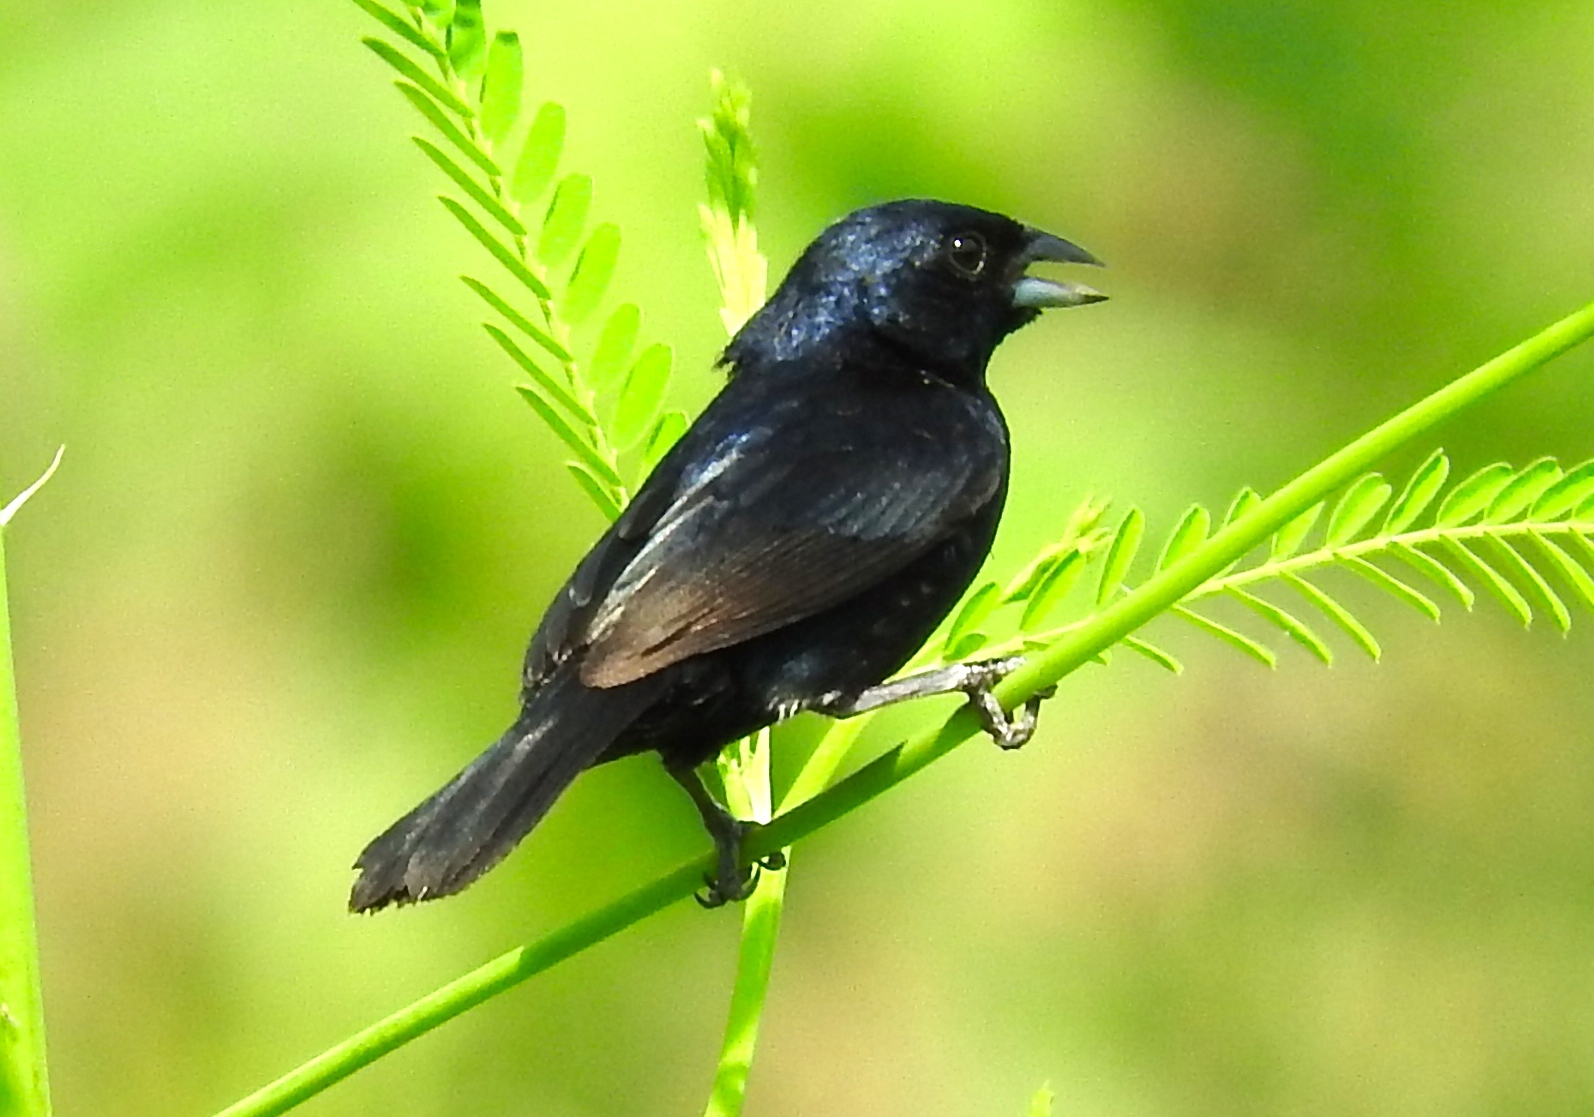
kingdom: Animalia
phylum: Chordata
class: Aves
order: Passeriformes
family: Thraupidae
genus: Volatinia
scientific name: Volatinia jacarina
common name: Blue-black grassquit
